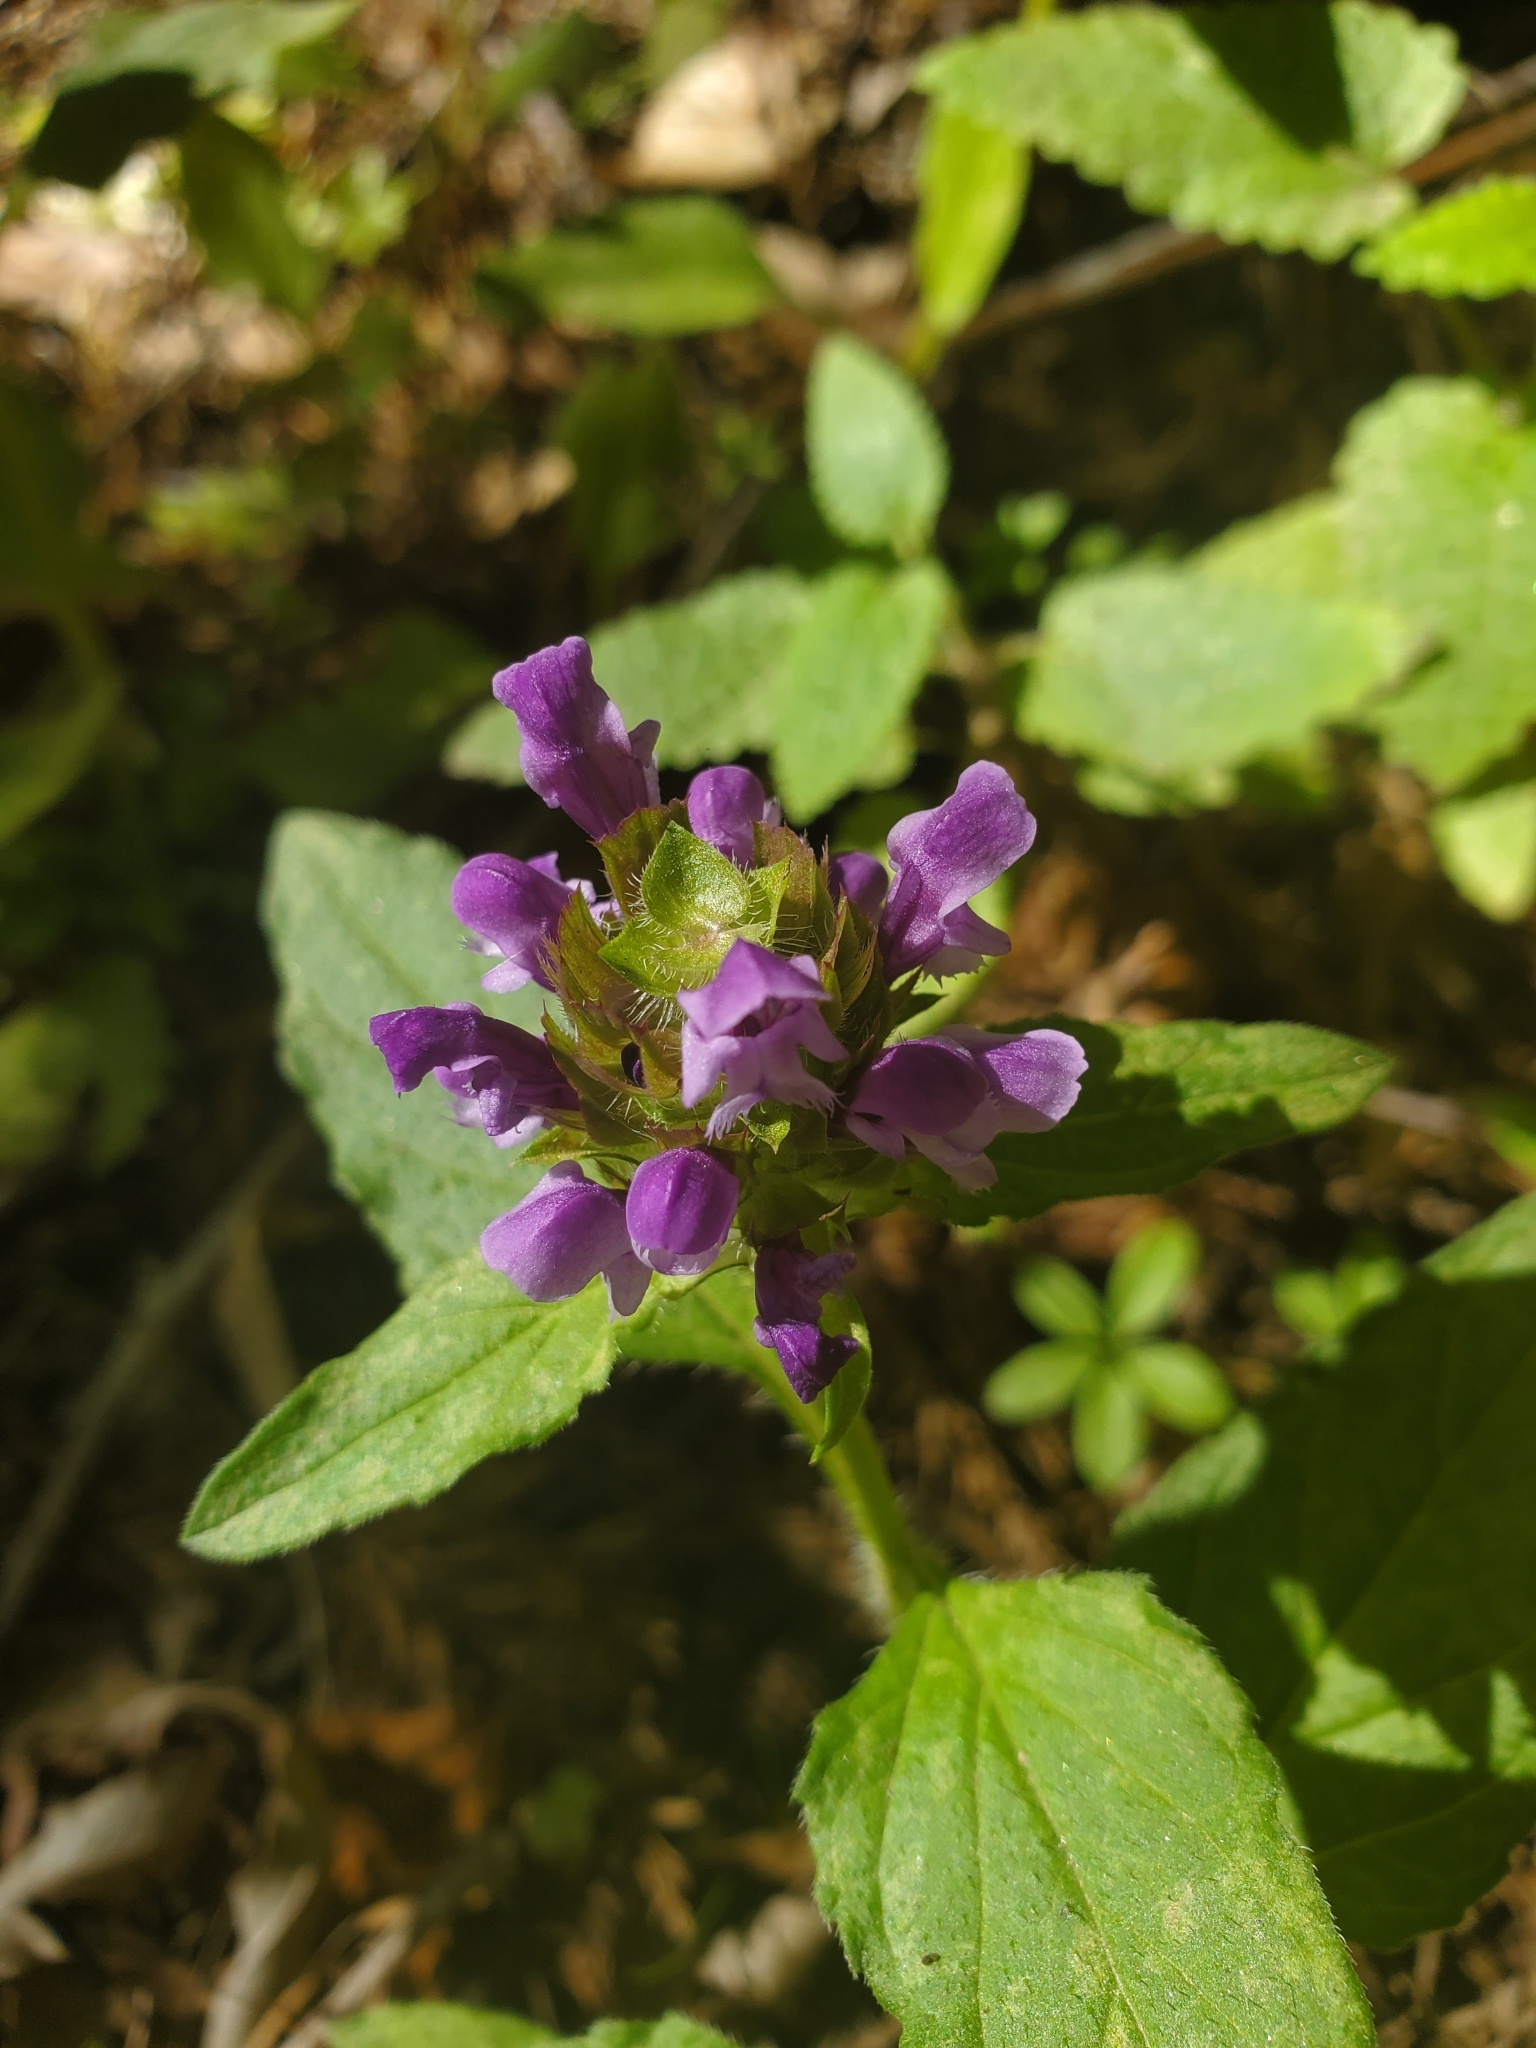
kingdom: Plantae
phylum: Tracheophyta
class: Magnoliopsida
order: Lamiales
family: Lamiaceae
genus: Prunella
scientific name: Prunella vulgaris
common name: Heal-all
